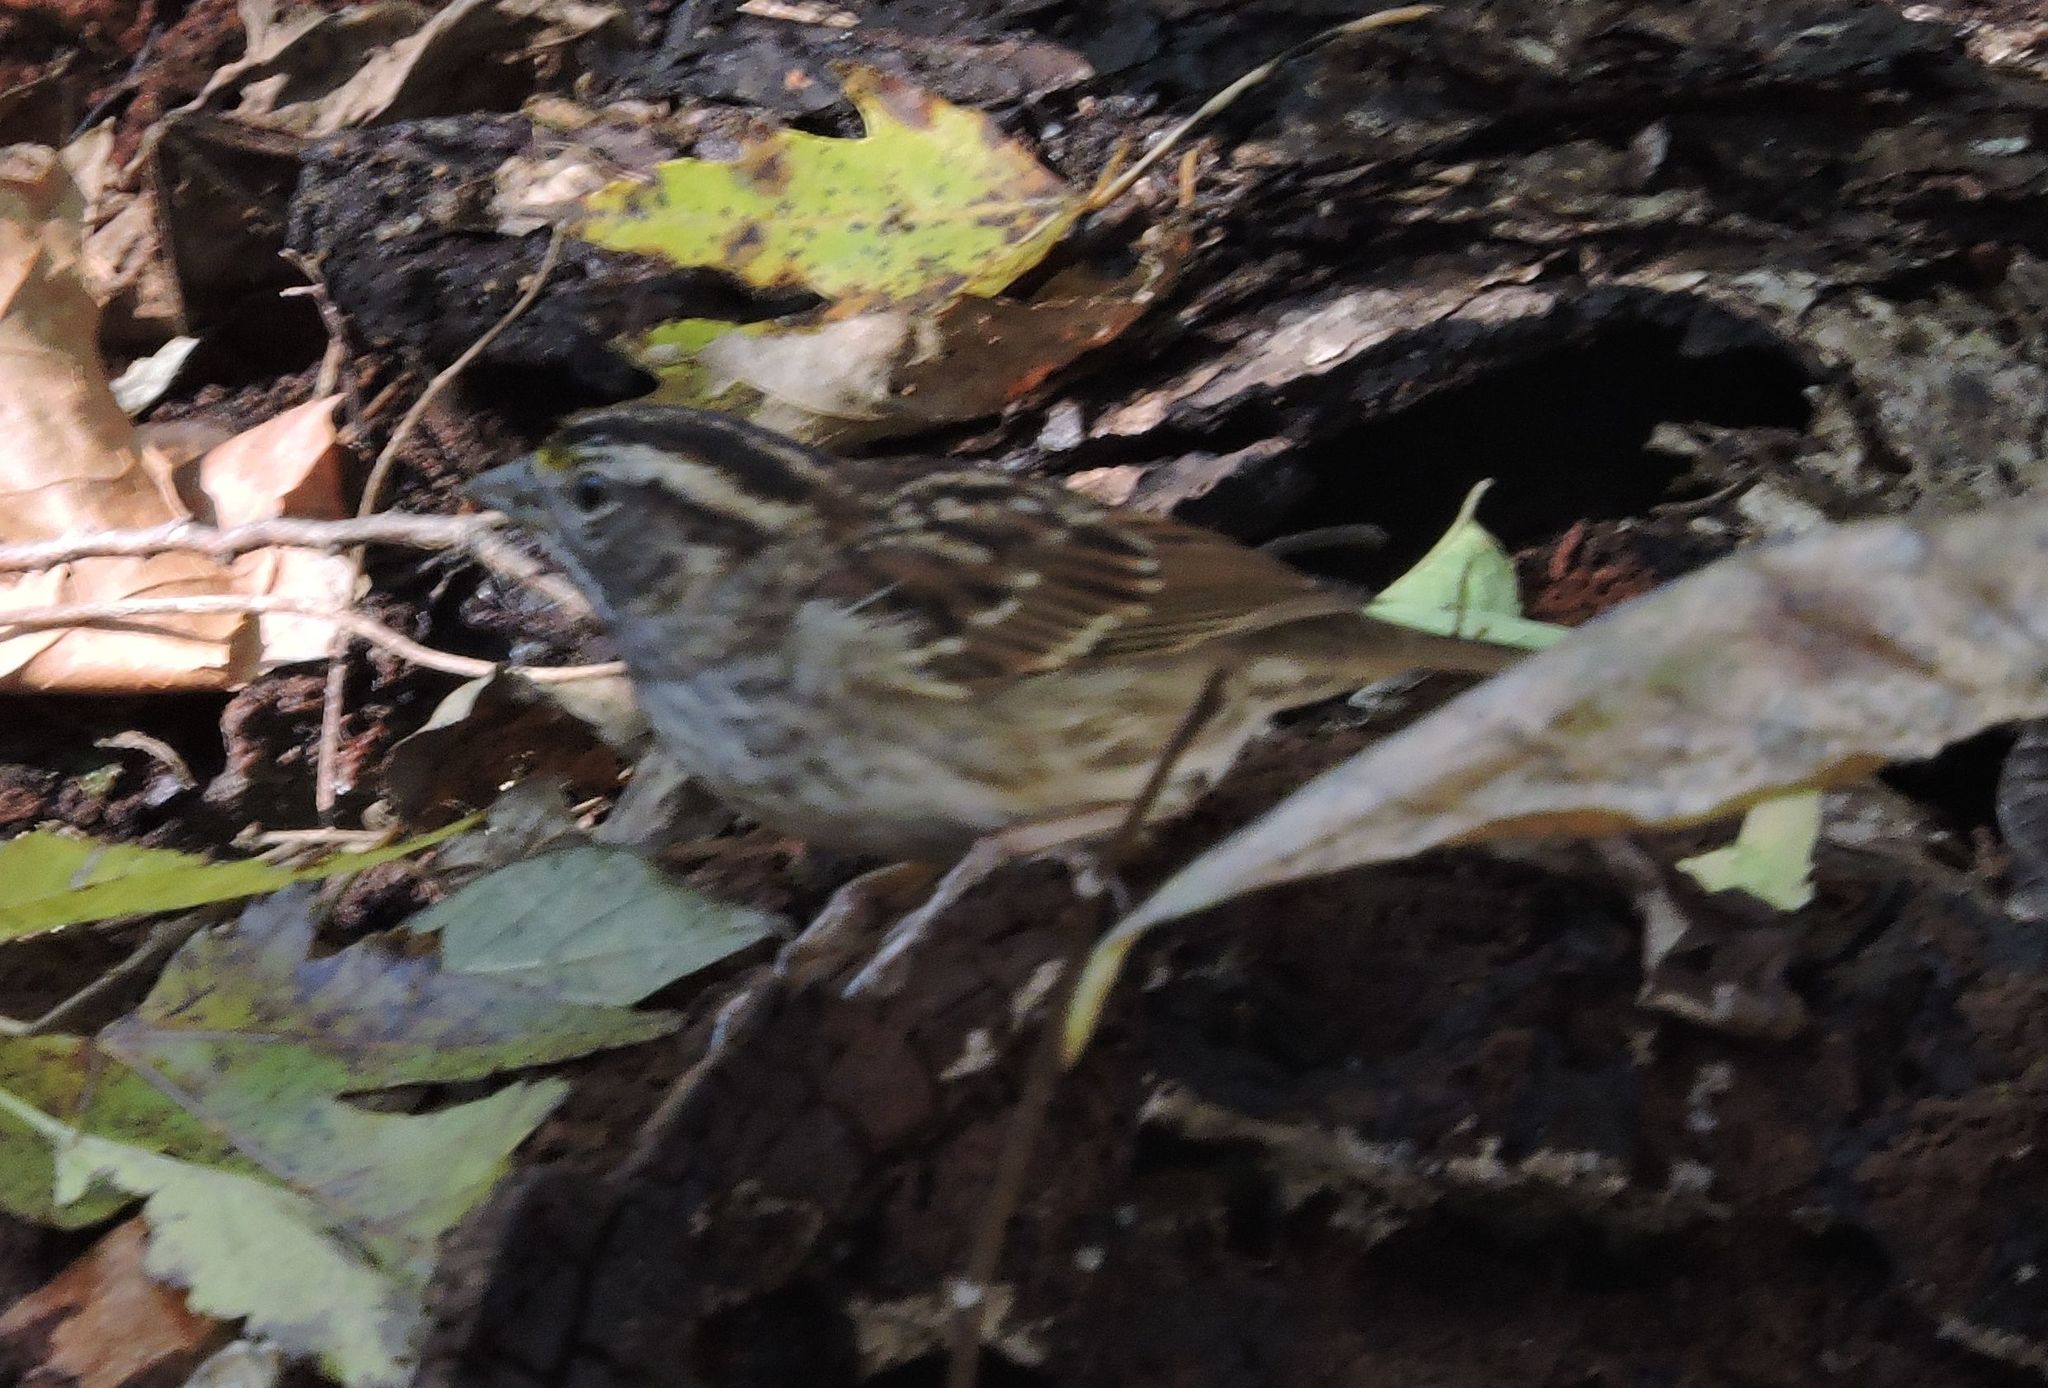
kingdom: Animalia
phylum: Chordata
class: Aves
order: Passeriformes
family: Passerellidae
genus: Zonotrichia
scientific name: Zonotrichia albicollis
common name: White-throated sparrow
